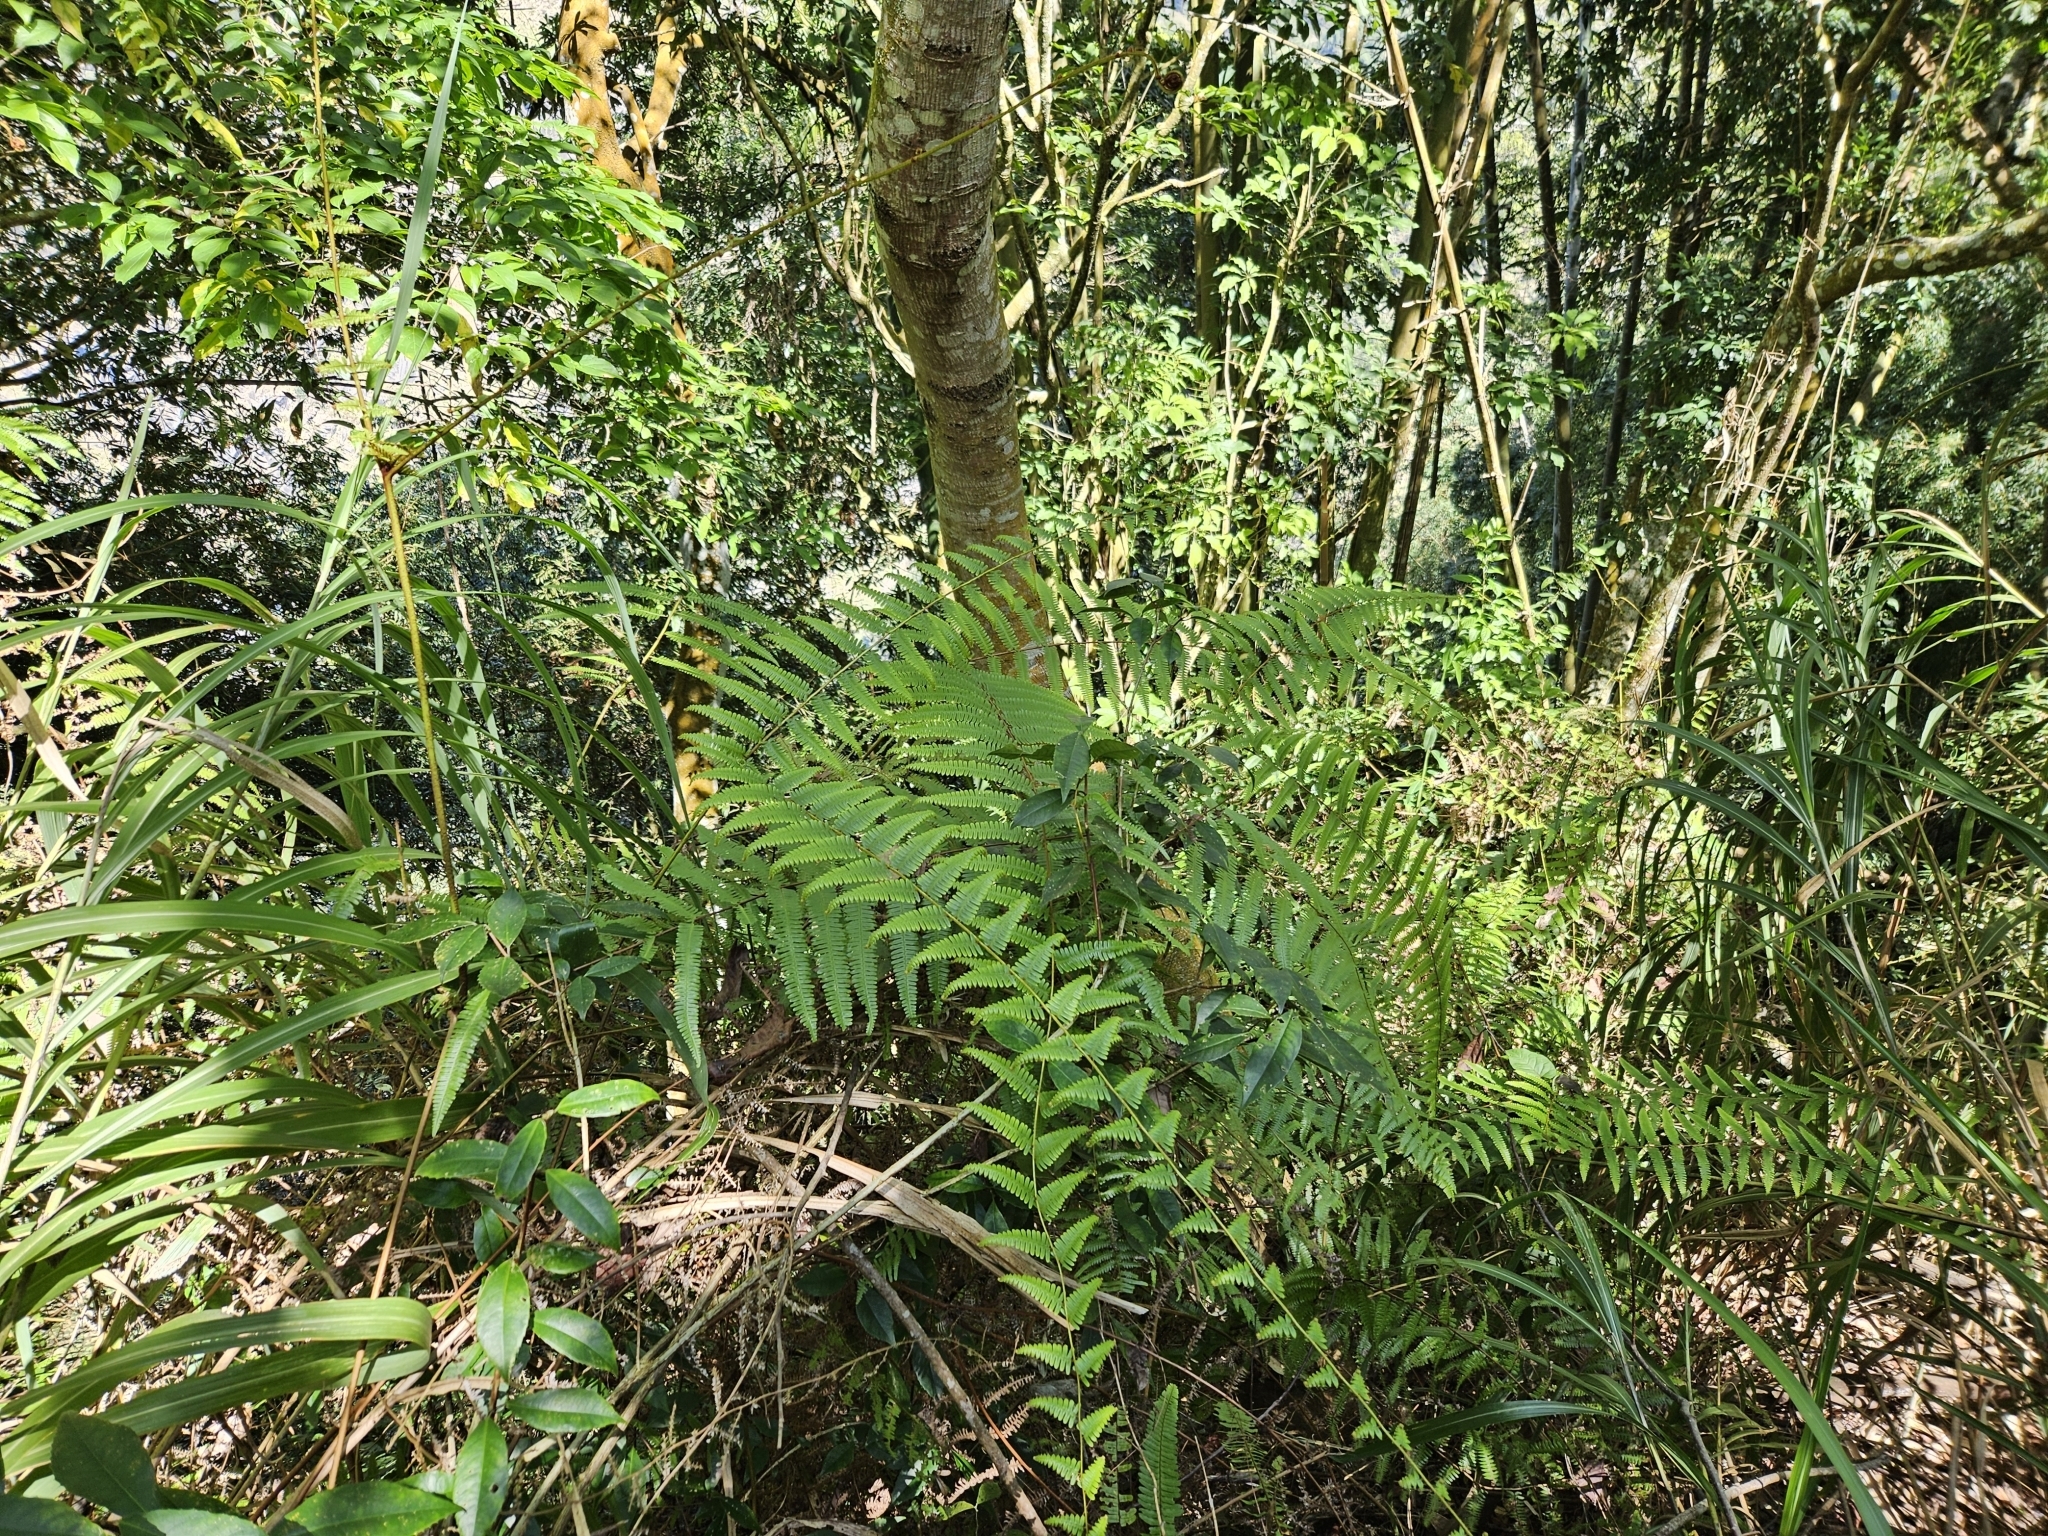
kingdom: Plantae
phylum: Tracheophyta
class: Polypodiopsida
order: Gleicheniales
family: Gleicheniaceae
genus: Diplopterygium
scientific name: Diplopterygium blotianum
